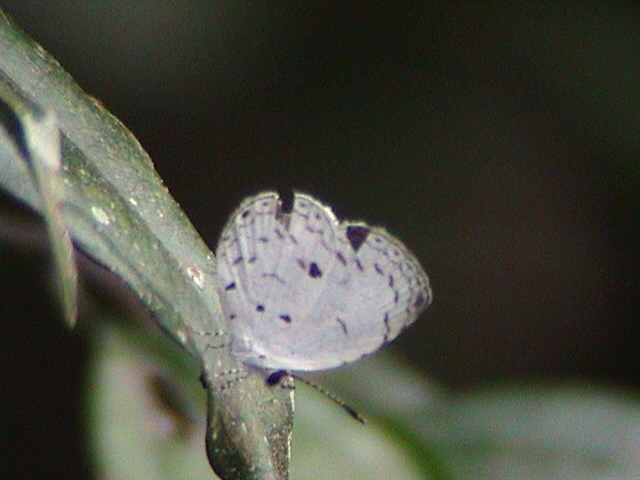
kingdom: Animalia
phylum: Arthropoda
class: Insecta
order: Lepidoptera
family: Lycaenidae
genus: Neopithecops
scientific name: Neopithecops zalmora
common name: Quaker
